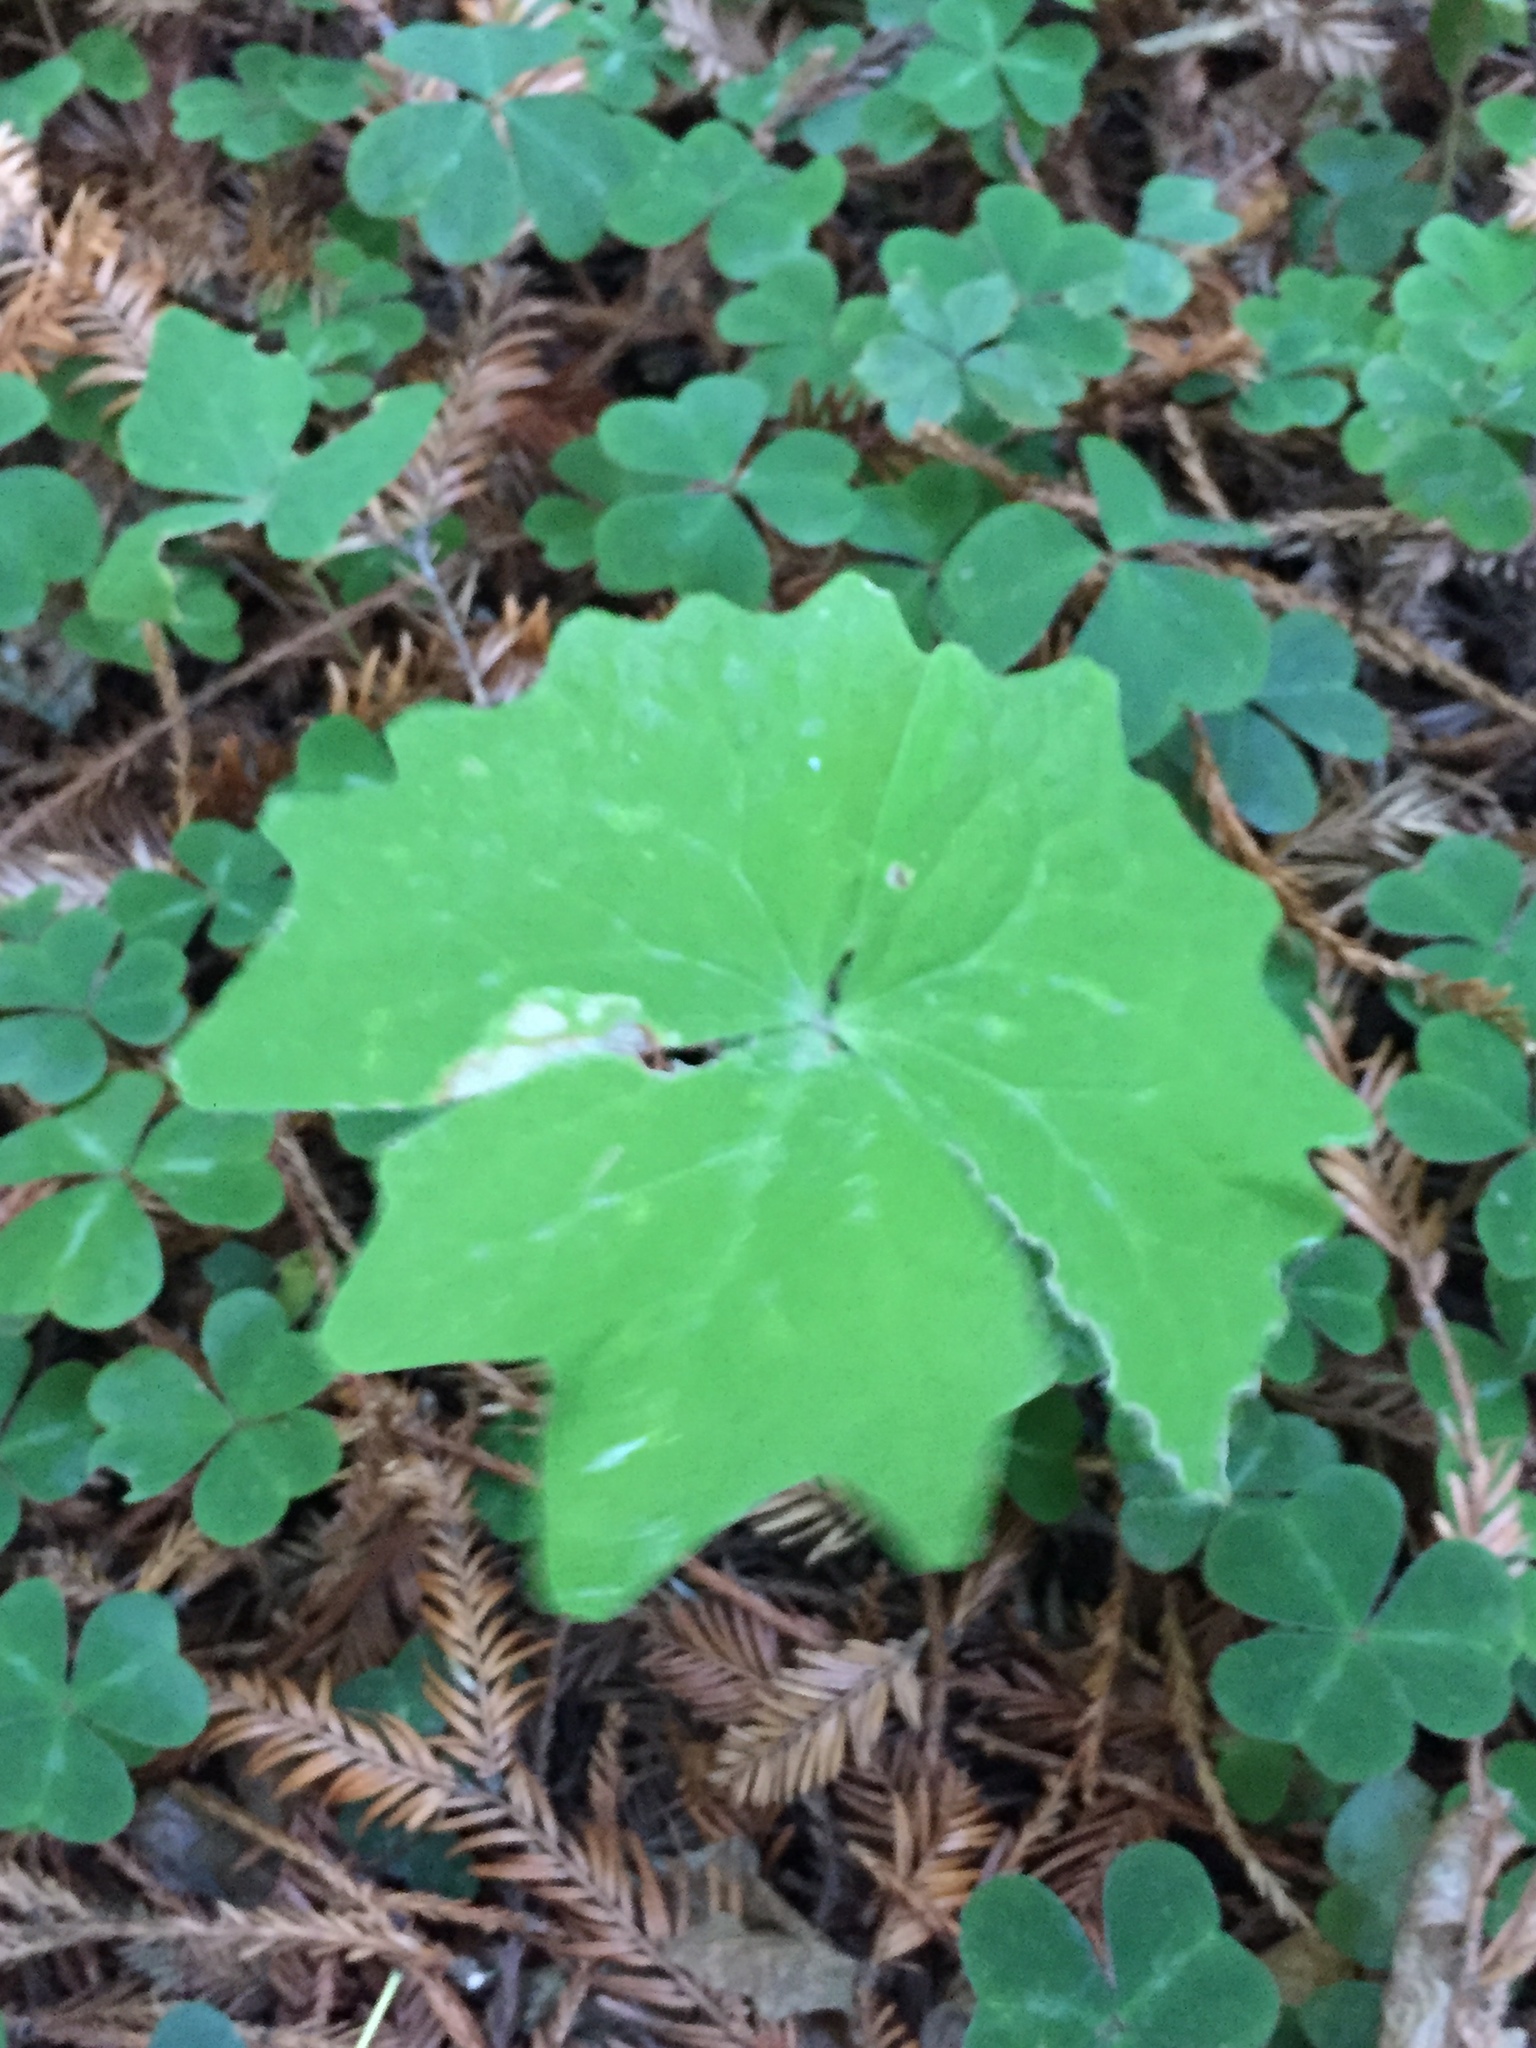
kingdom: Plantae
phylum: Tracheophyta
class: Magnoliopsida
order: Ranunculales
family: Berberidaceae
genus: Achlys
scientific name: Achlys triphylla
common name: Vanilla-leaf
